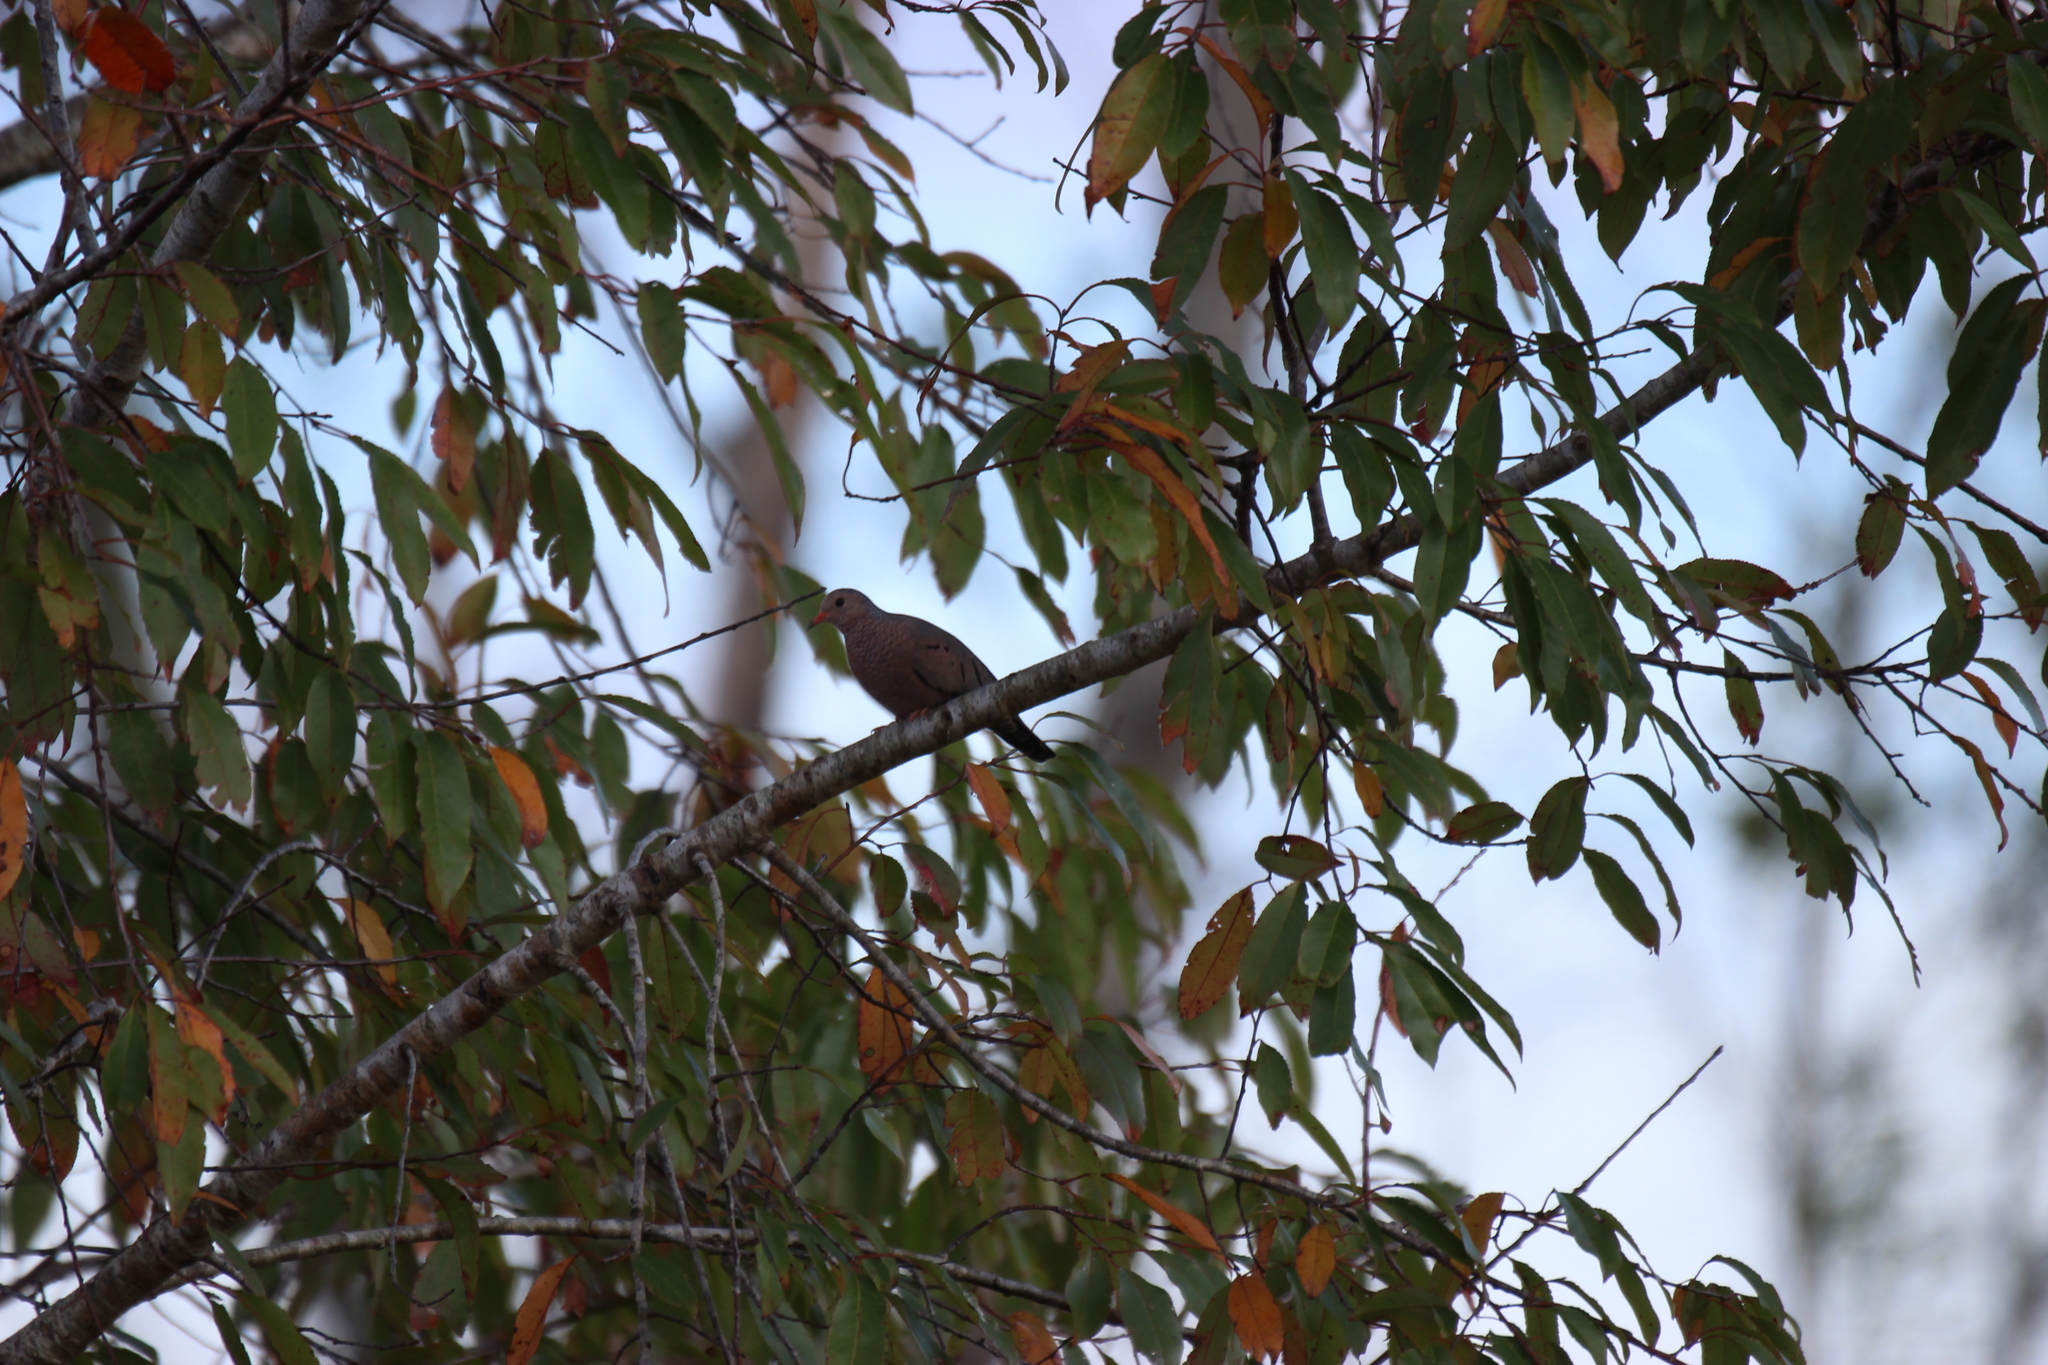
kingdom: Animalia
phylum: Chordata
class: Aves
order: Columbiformes
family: Columbidae
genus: Columbina
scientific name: Columbina passerina
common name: Common ground-dove
